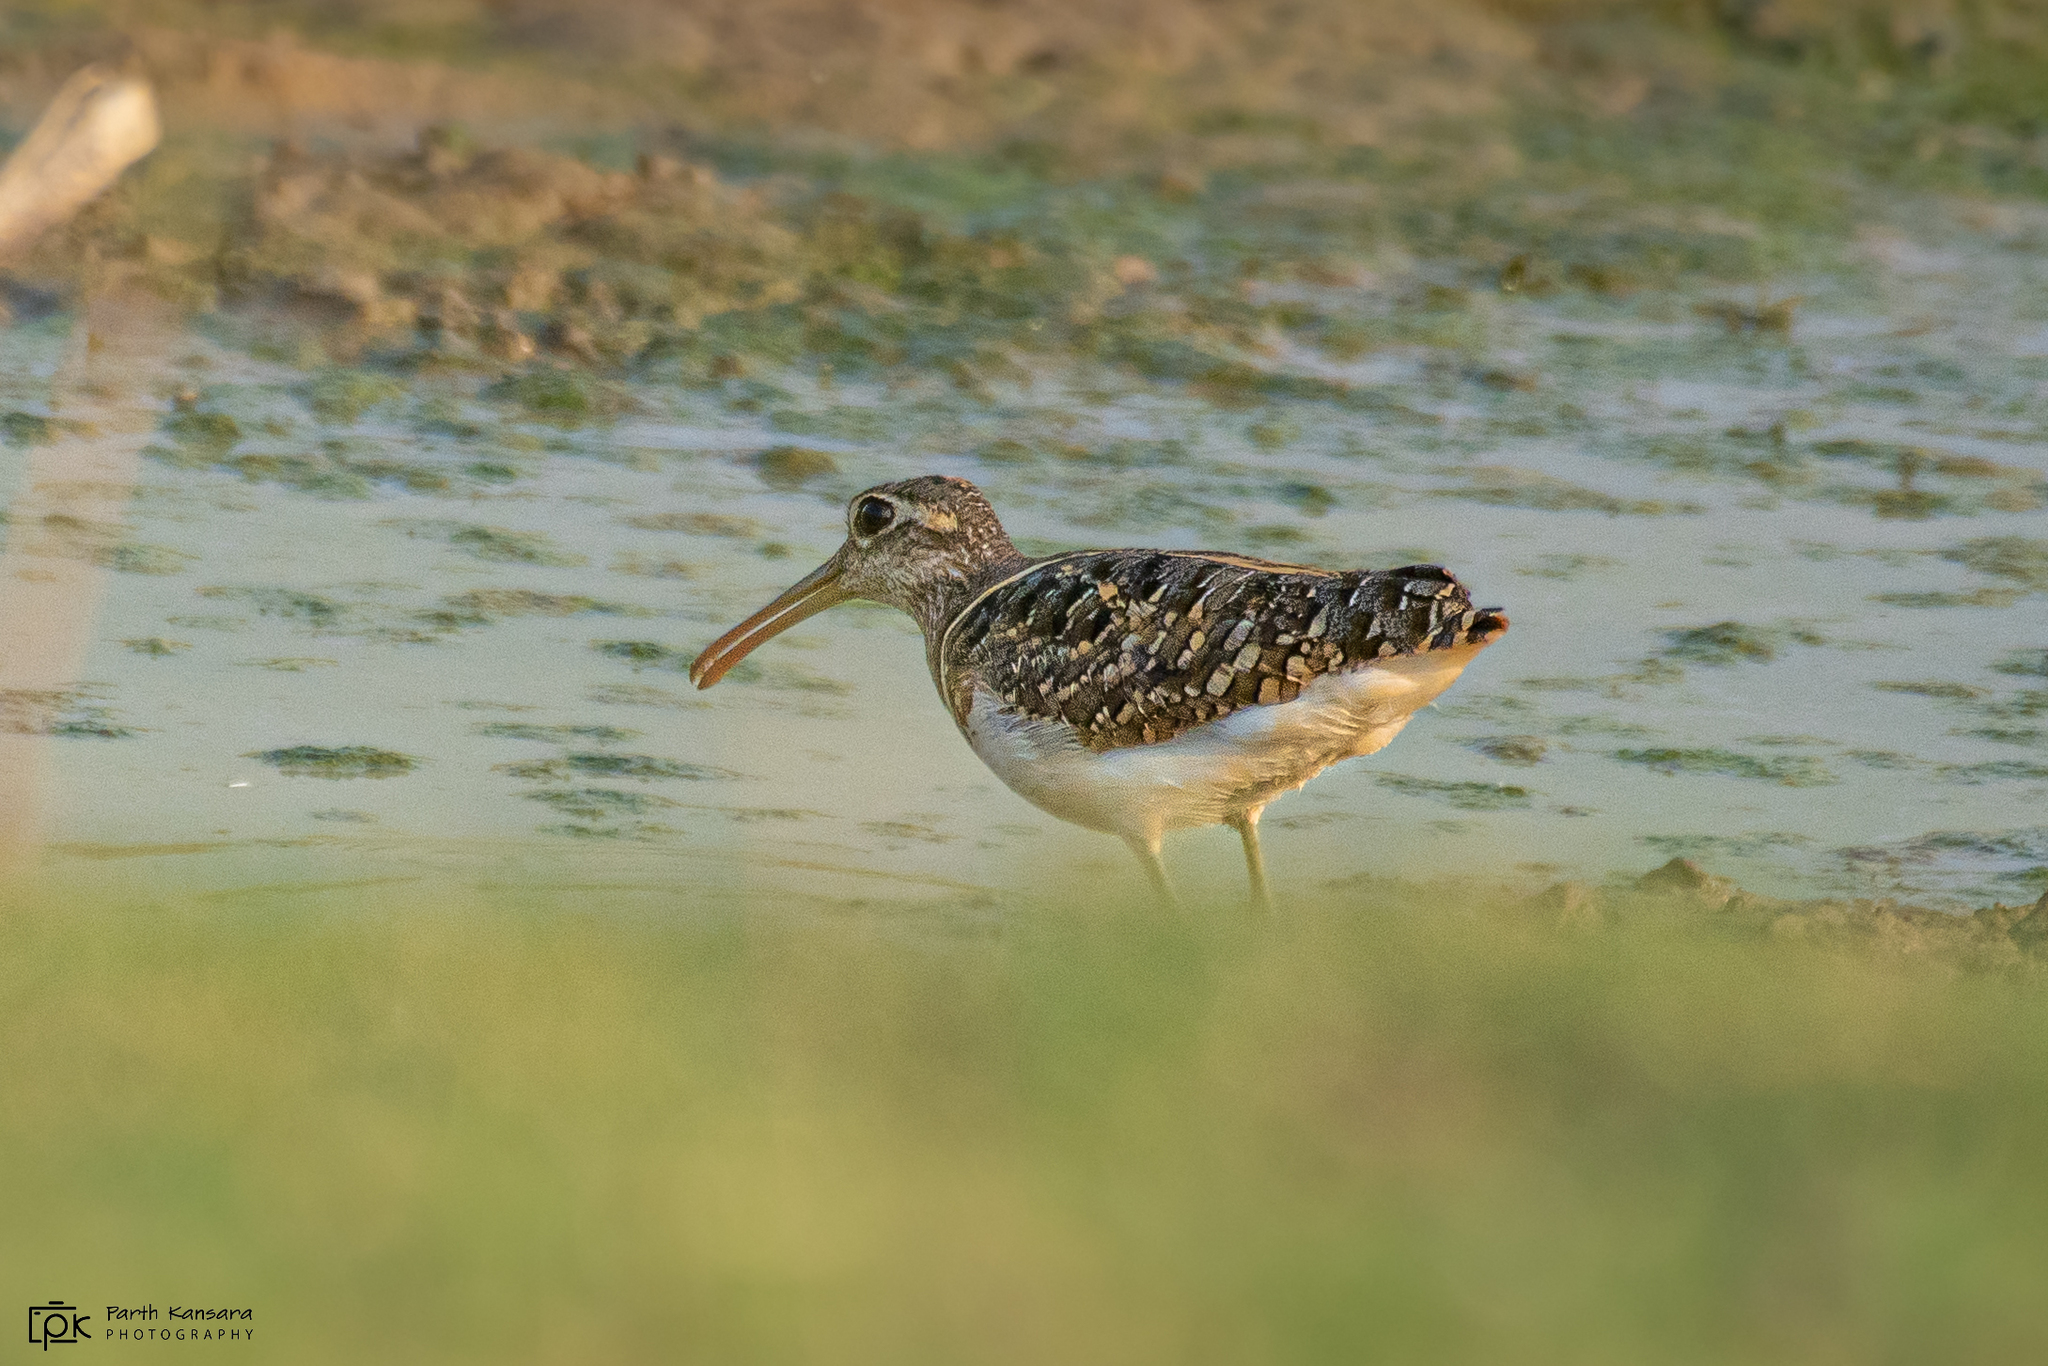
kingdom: Animalia
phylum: Chordata
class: Aves
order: Charadriiformes
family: Rostratulidae
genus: Rostratula
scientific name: Rostratula benghalensis
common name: Greater painted-snipe
